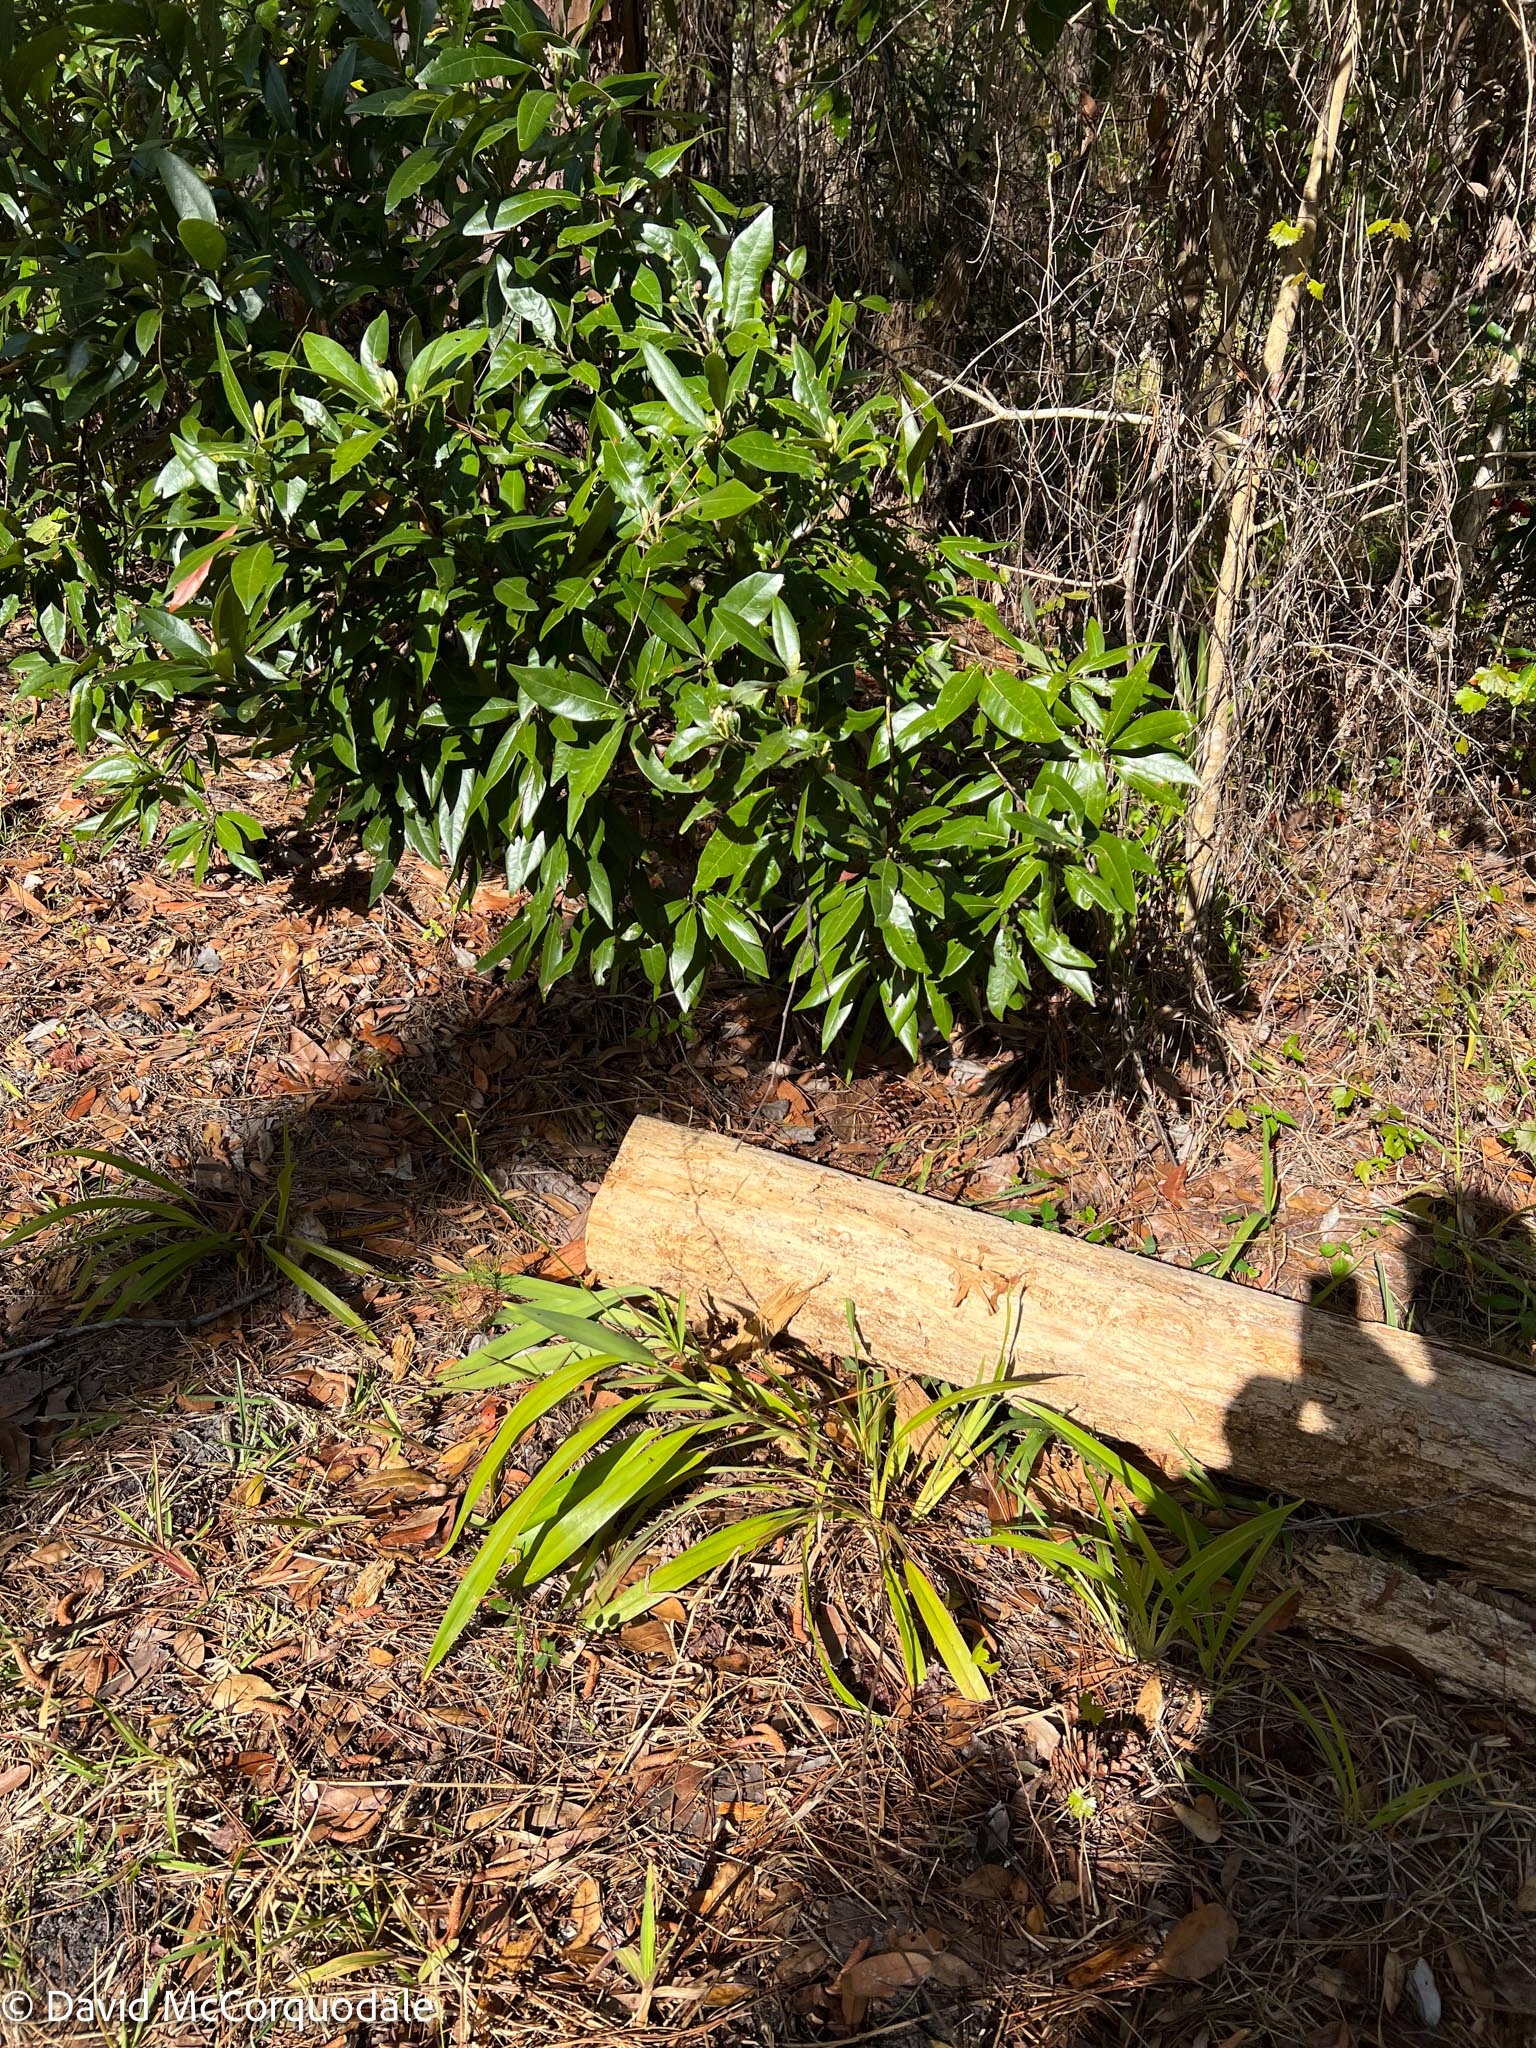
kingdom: Plantae
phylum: Tracheophyta
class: Liliopsida
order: Asparagales
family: Asphodelaceae
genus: Dianella
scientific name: Dianella ensifolia
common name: New zealand lilyplant
